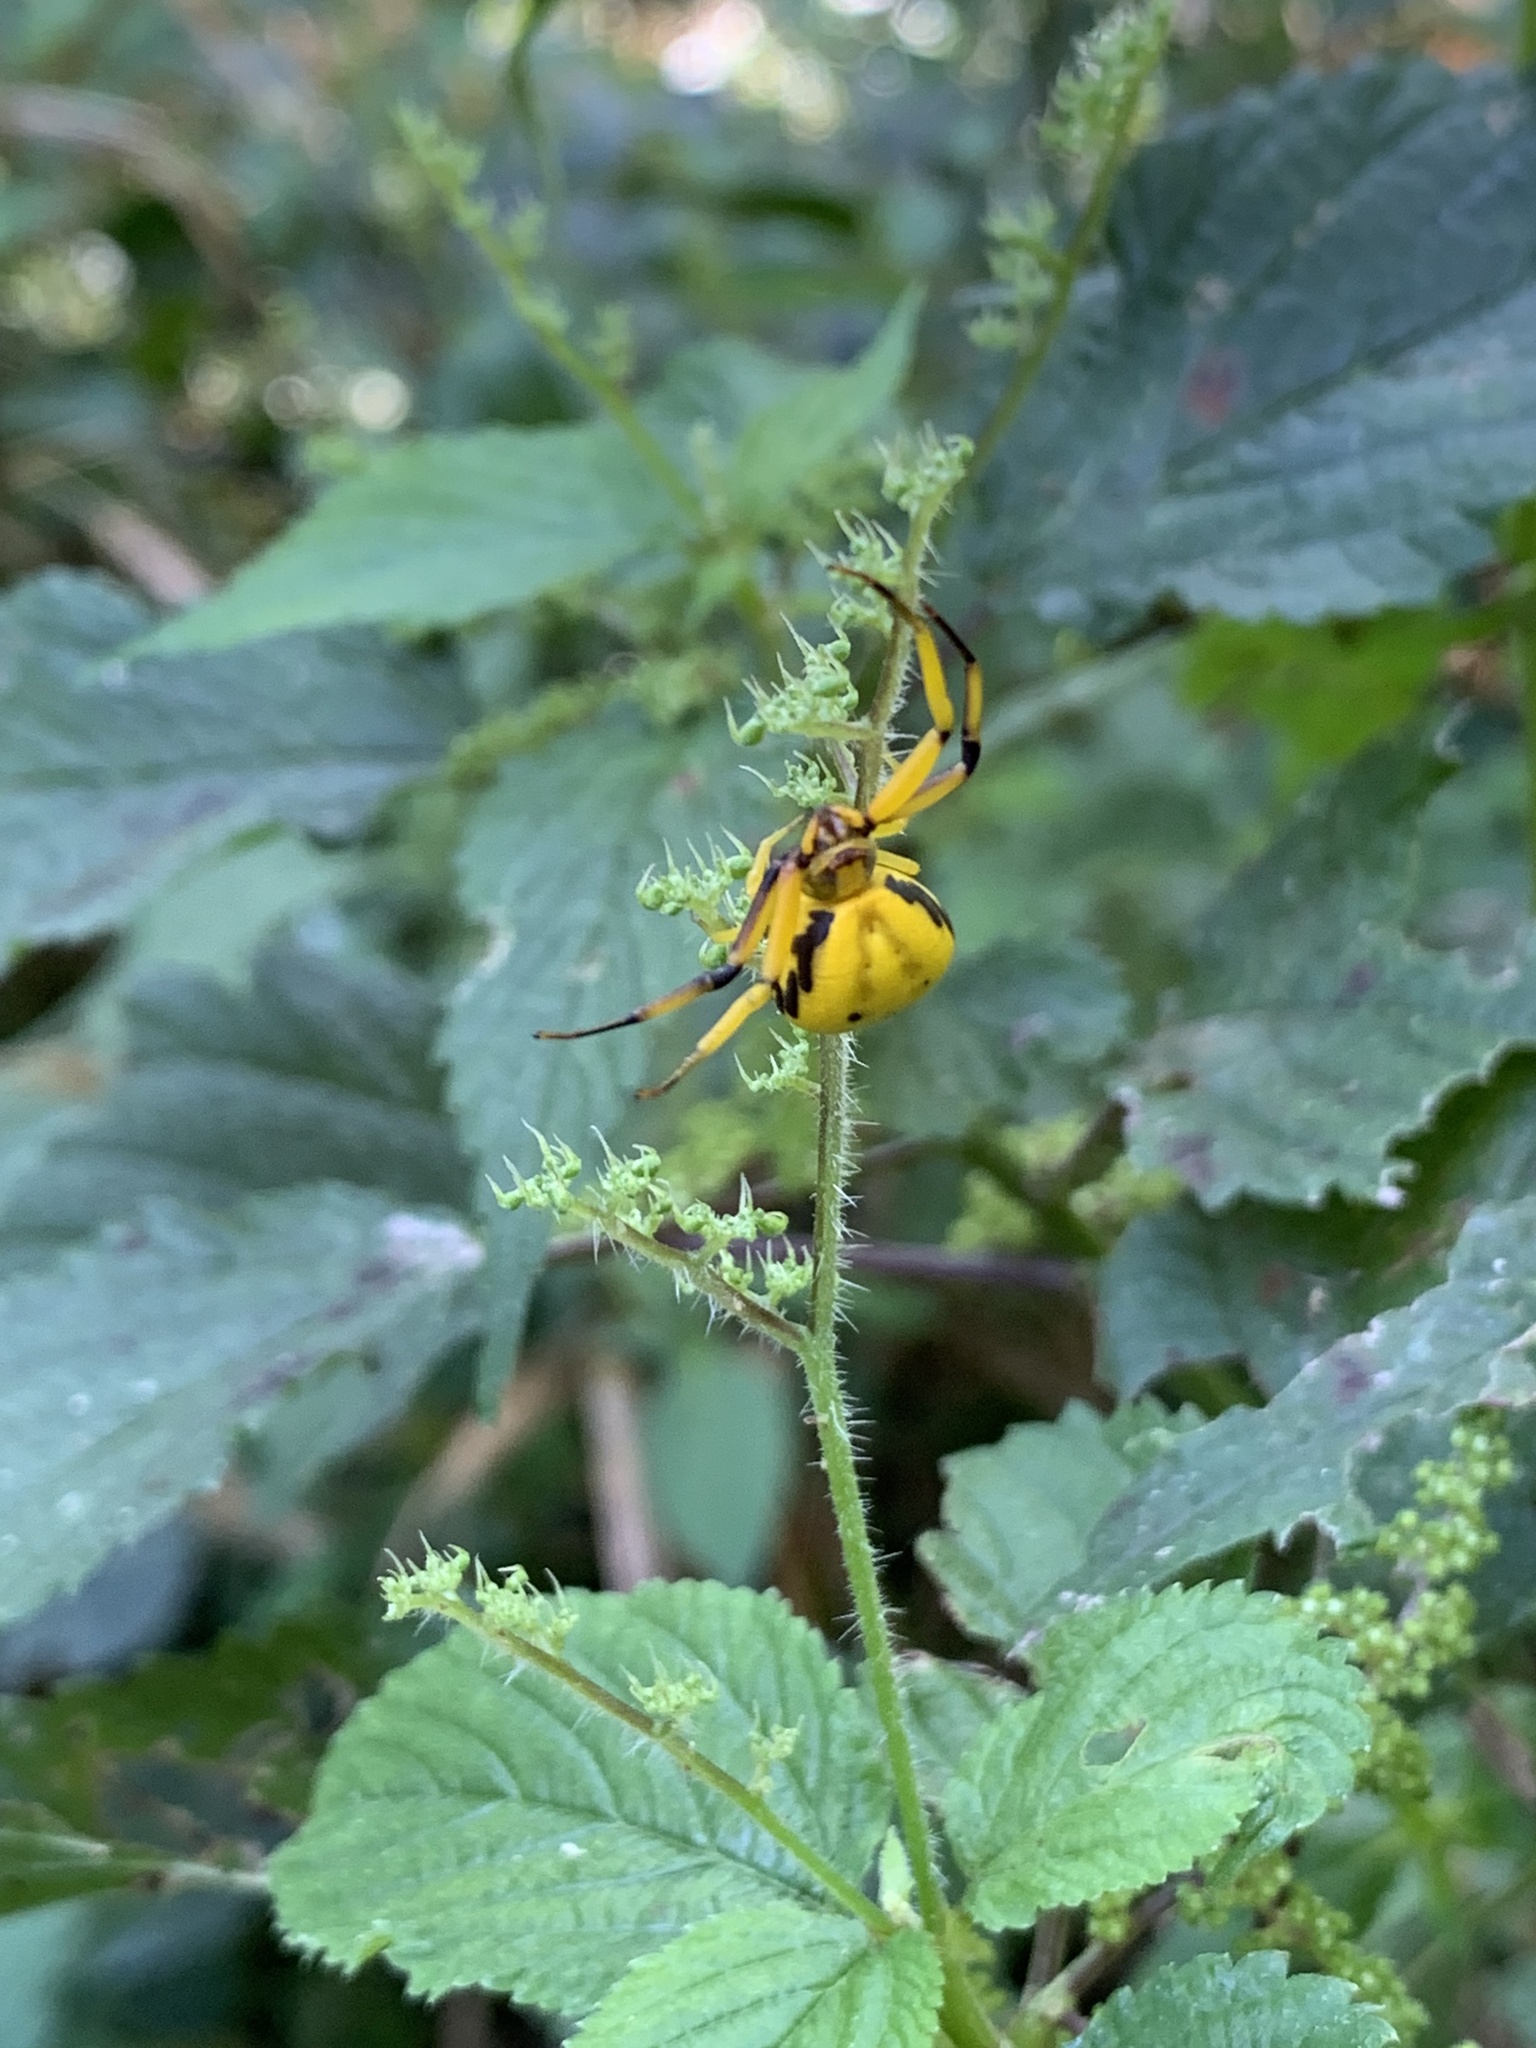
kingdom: Animalia
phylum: Arthropoda
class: Arachnida
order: Araneae
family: Thomisidae
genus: Misumenoides
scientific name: Misumenoides formosipes
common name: White-banded crab spider
